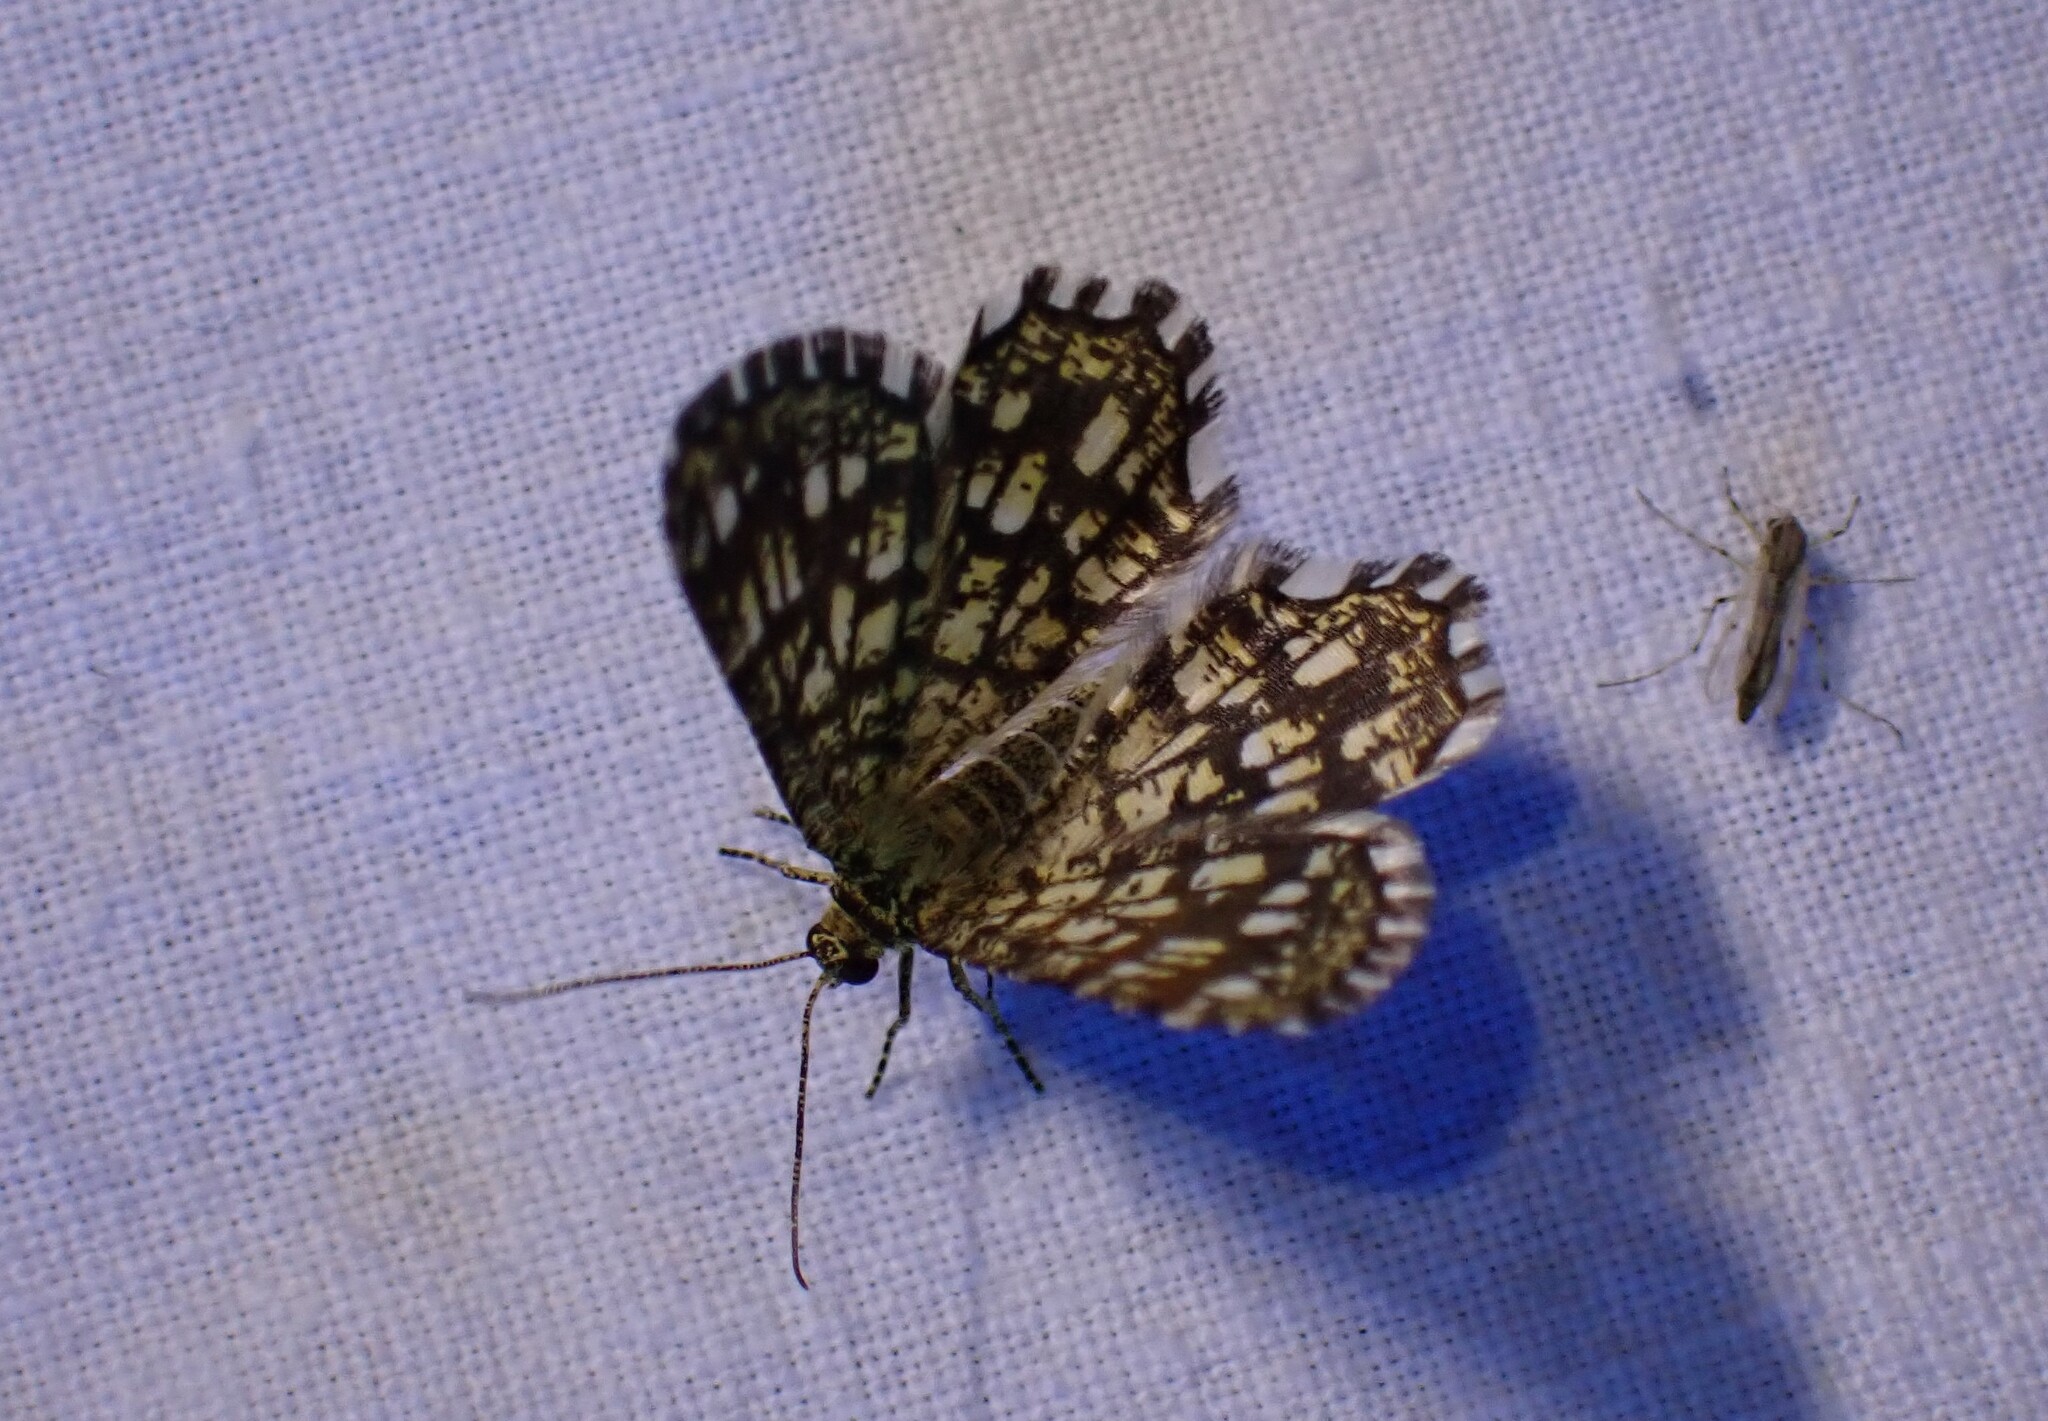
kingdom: Animalia
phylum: Arthropoda
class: Insecta
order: Lepidoptera
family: Geometridae
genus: Chiasmia
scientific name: Chiasmia clathrata
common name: Latticed heath
